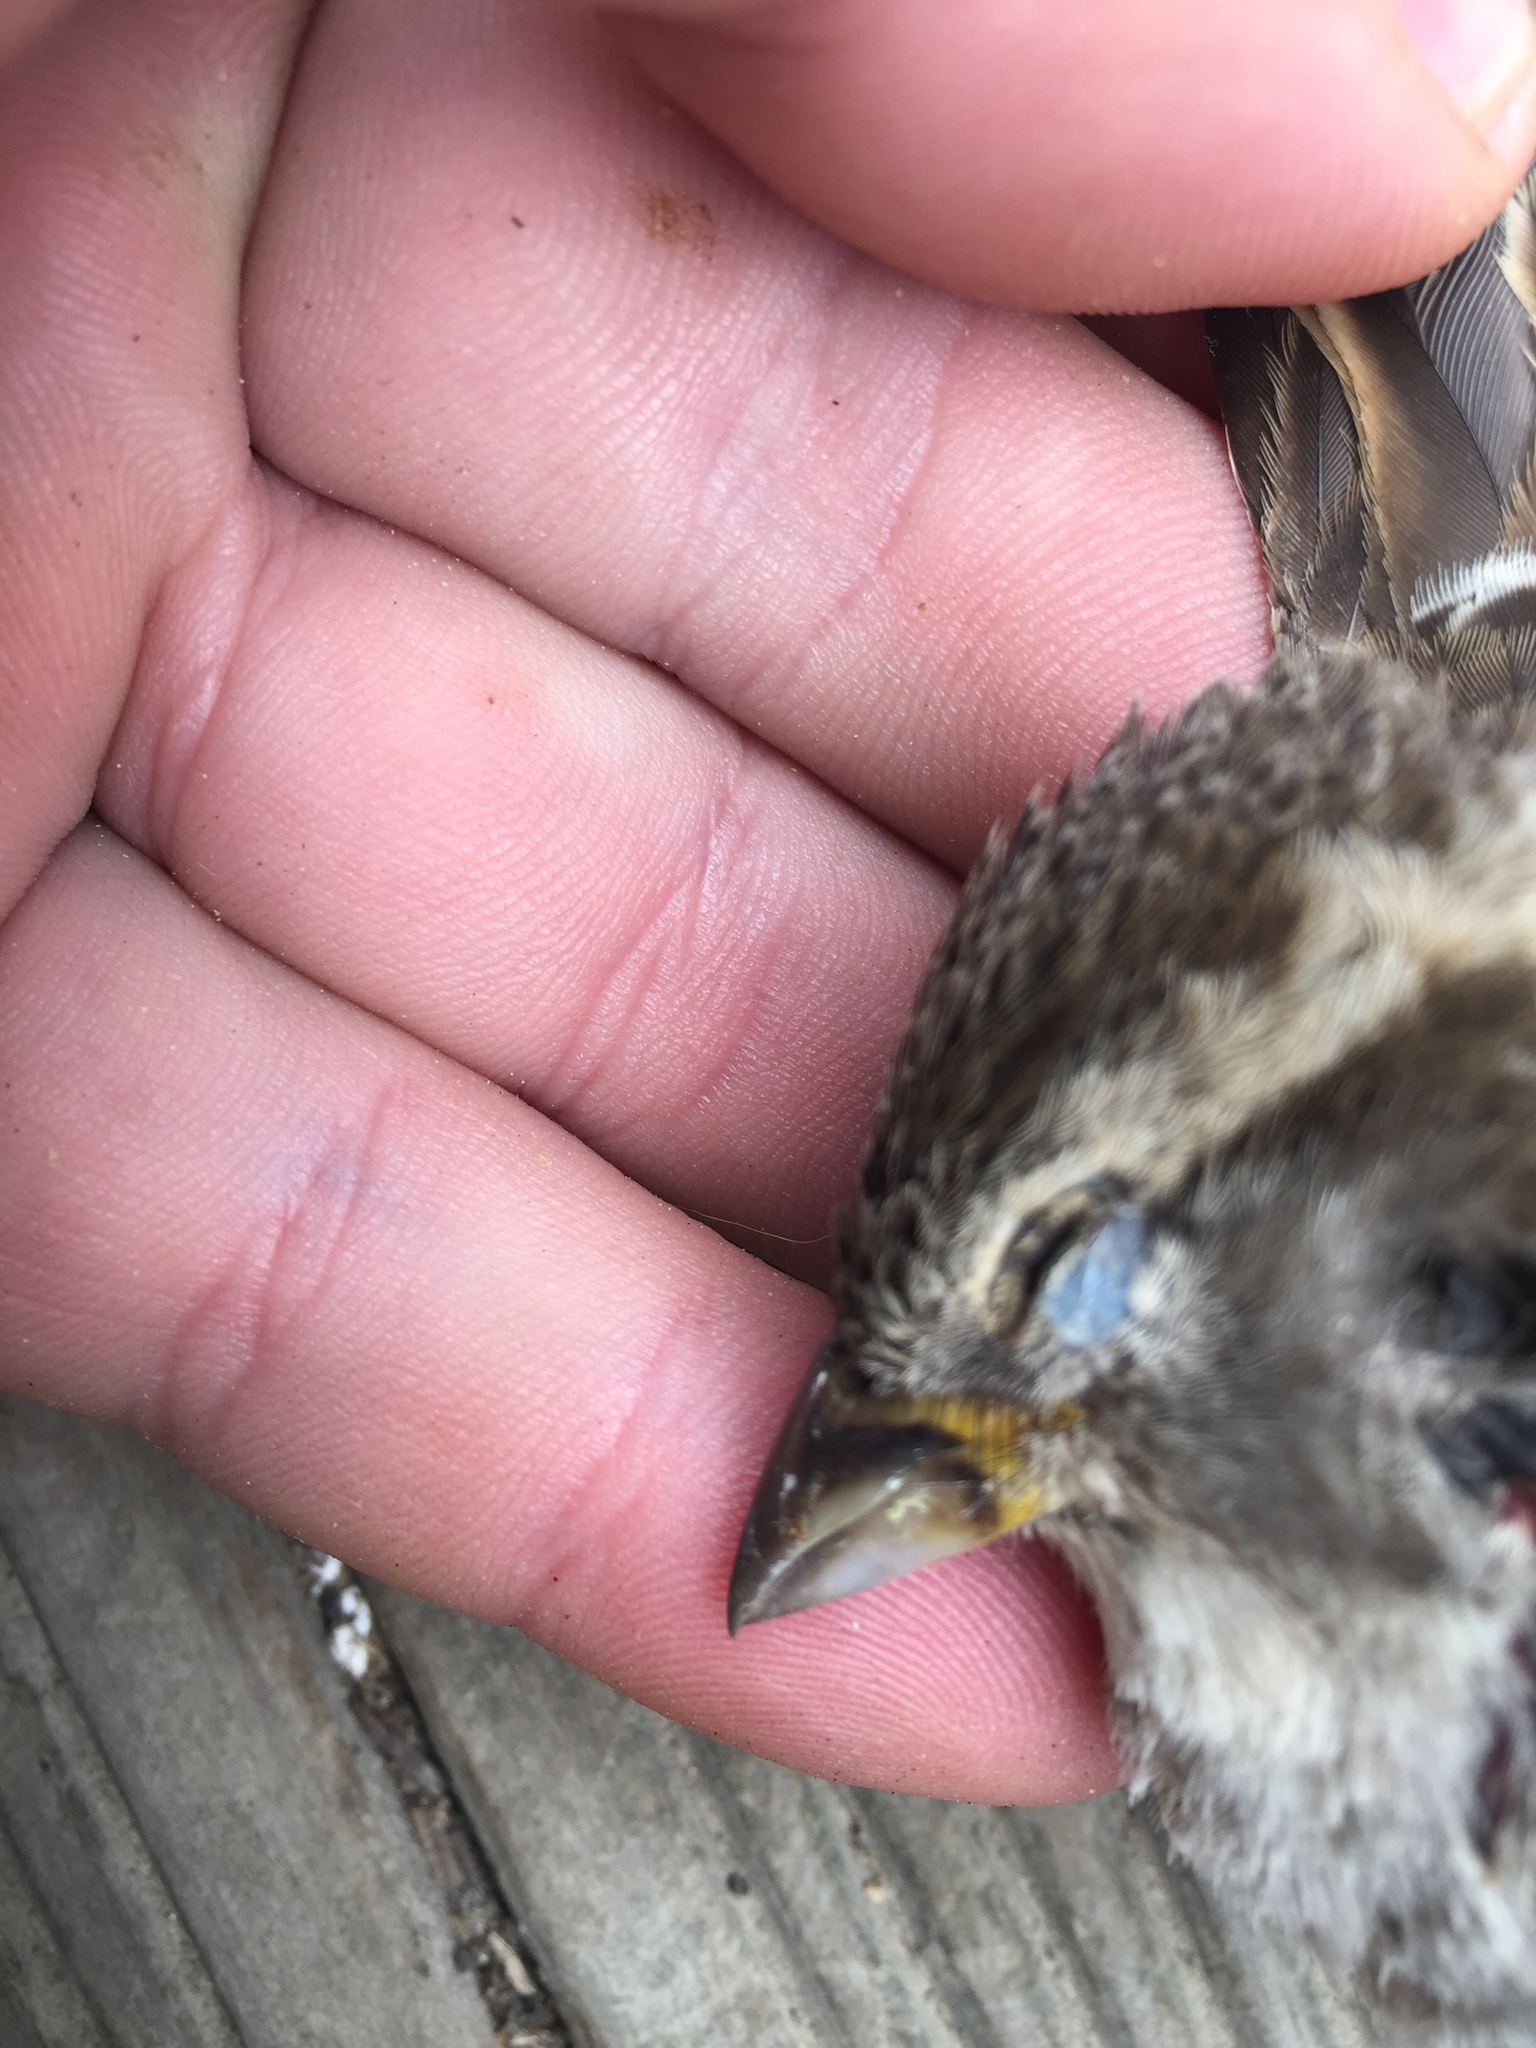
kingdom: Animalia
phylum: Chordata
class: Aves
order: Passeriformes
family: Passeridae
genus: Passer
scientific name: Passer domesticus
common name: House sparrow
